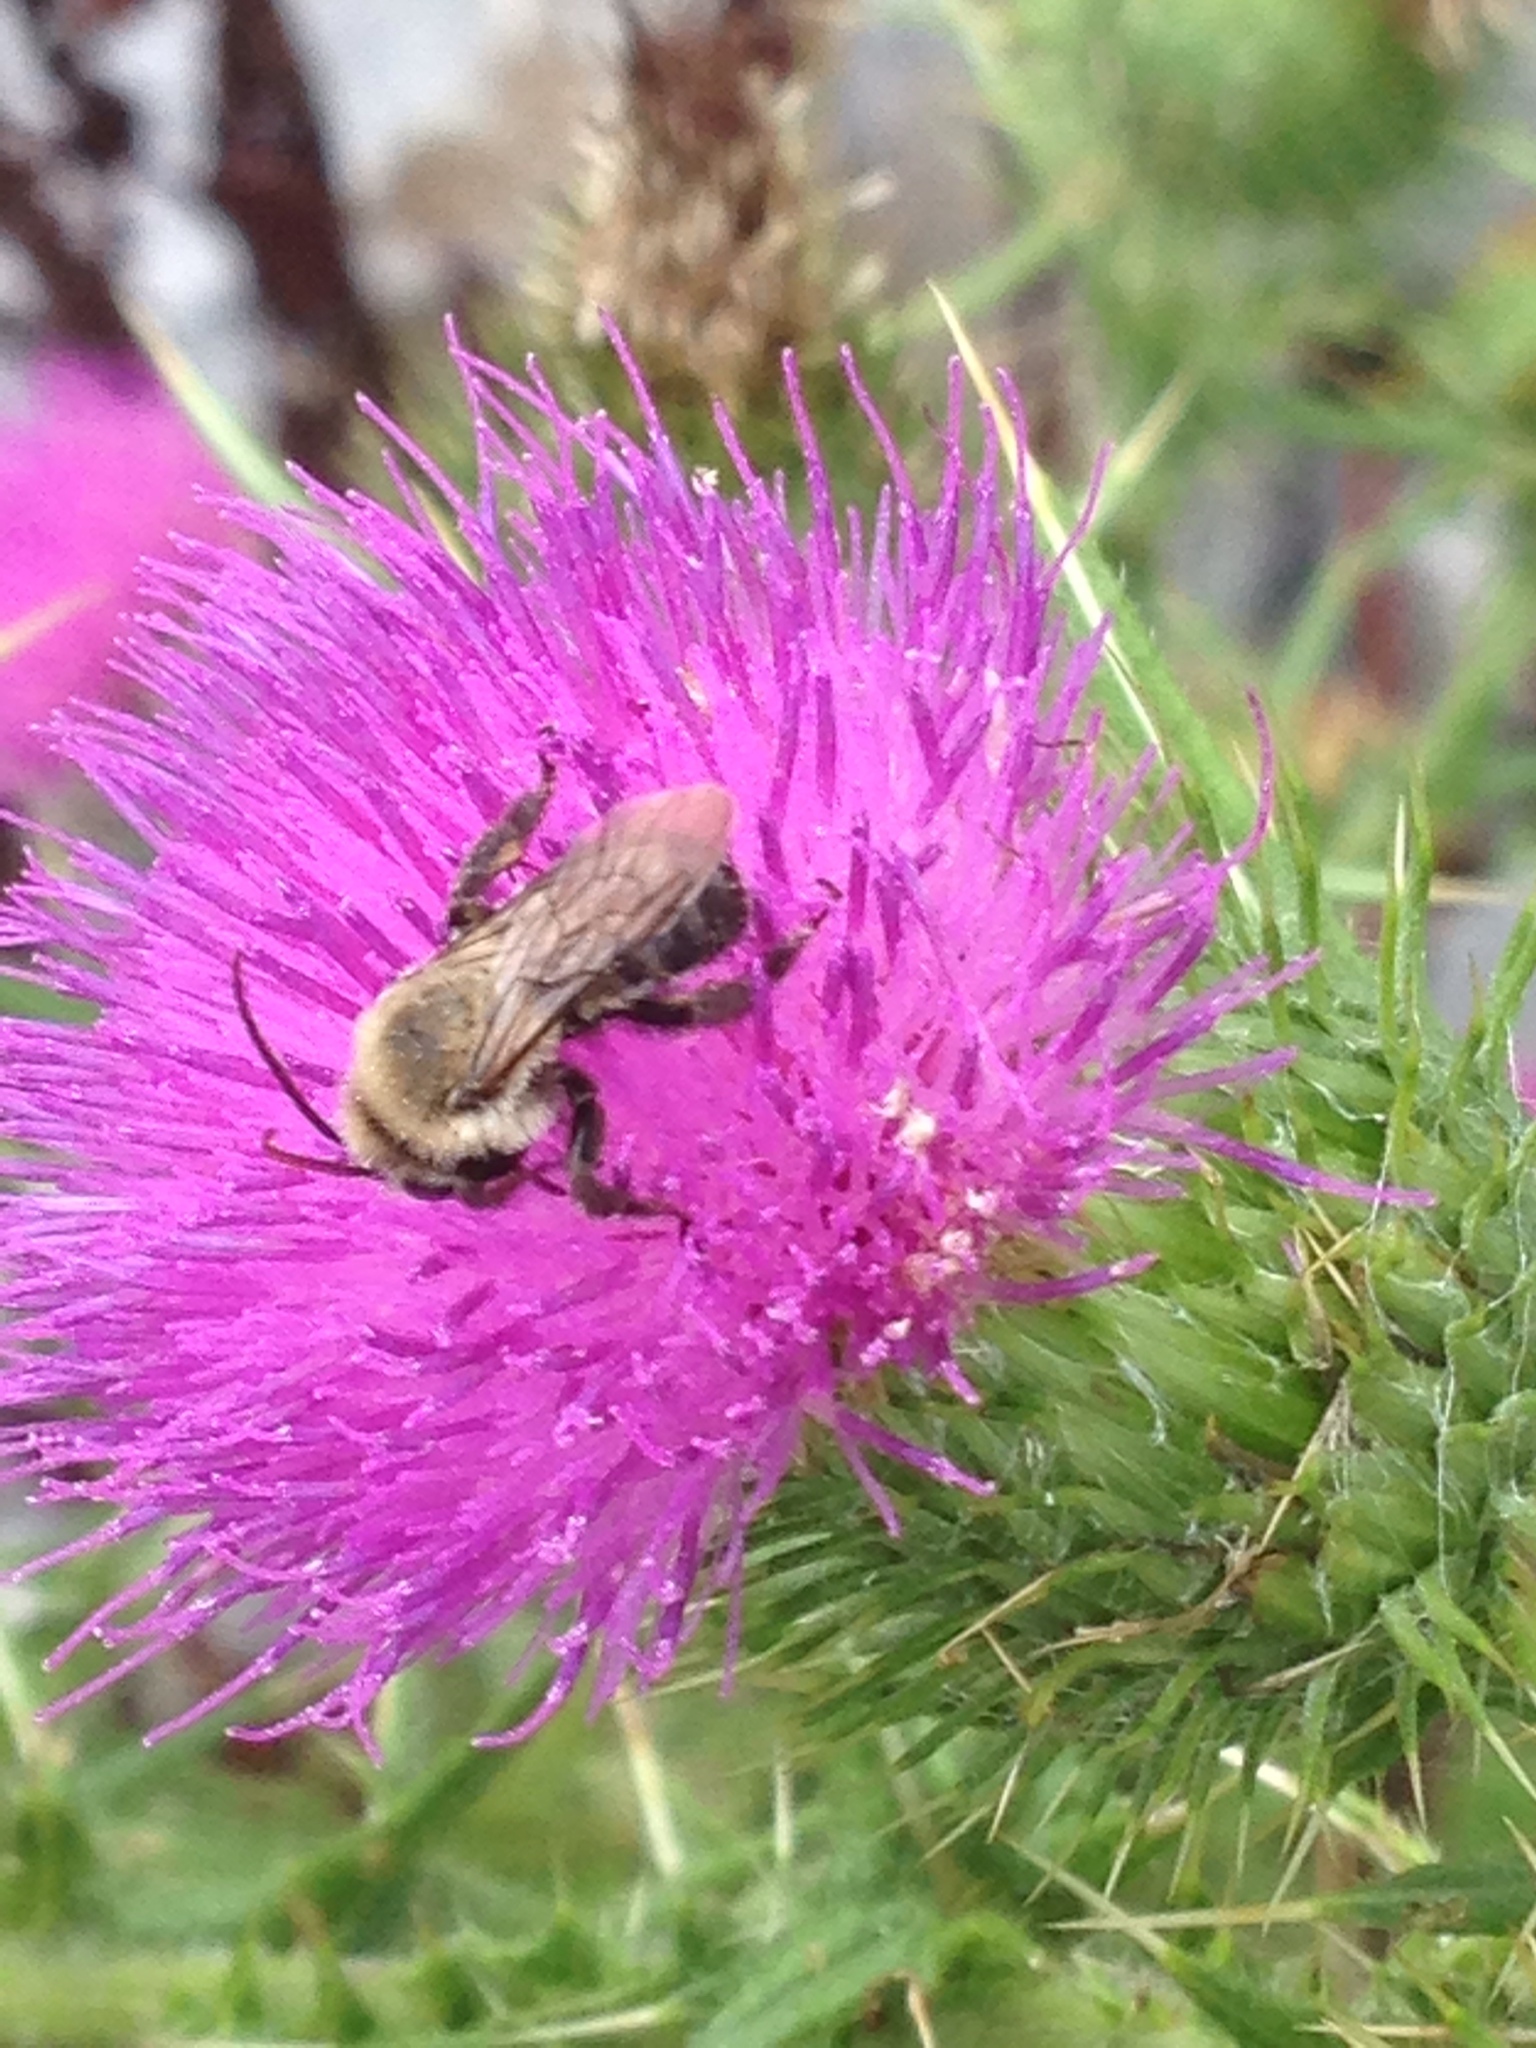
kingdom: Animalia
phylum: Arthropoda
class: Insecta
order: Hymenoptera
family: Apidae
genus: Melissodes
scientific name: Melissodes desponsus
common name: Thistle long-horned bee
